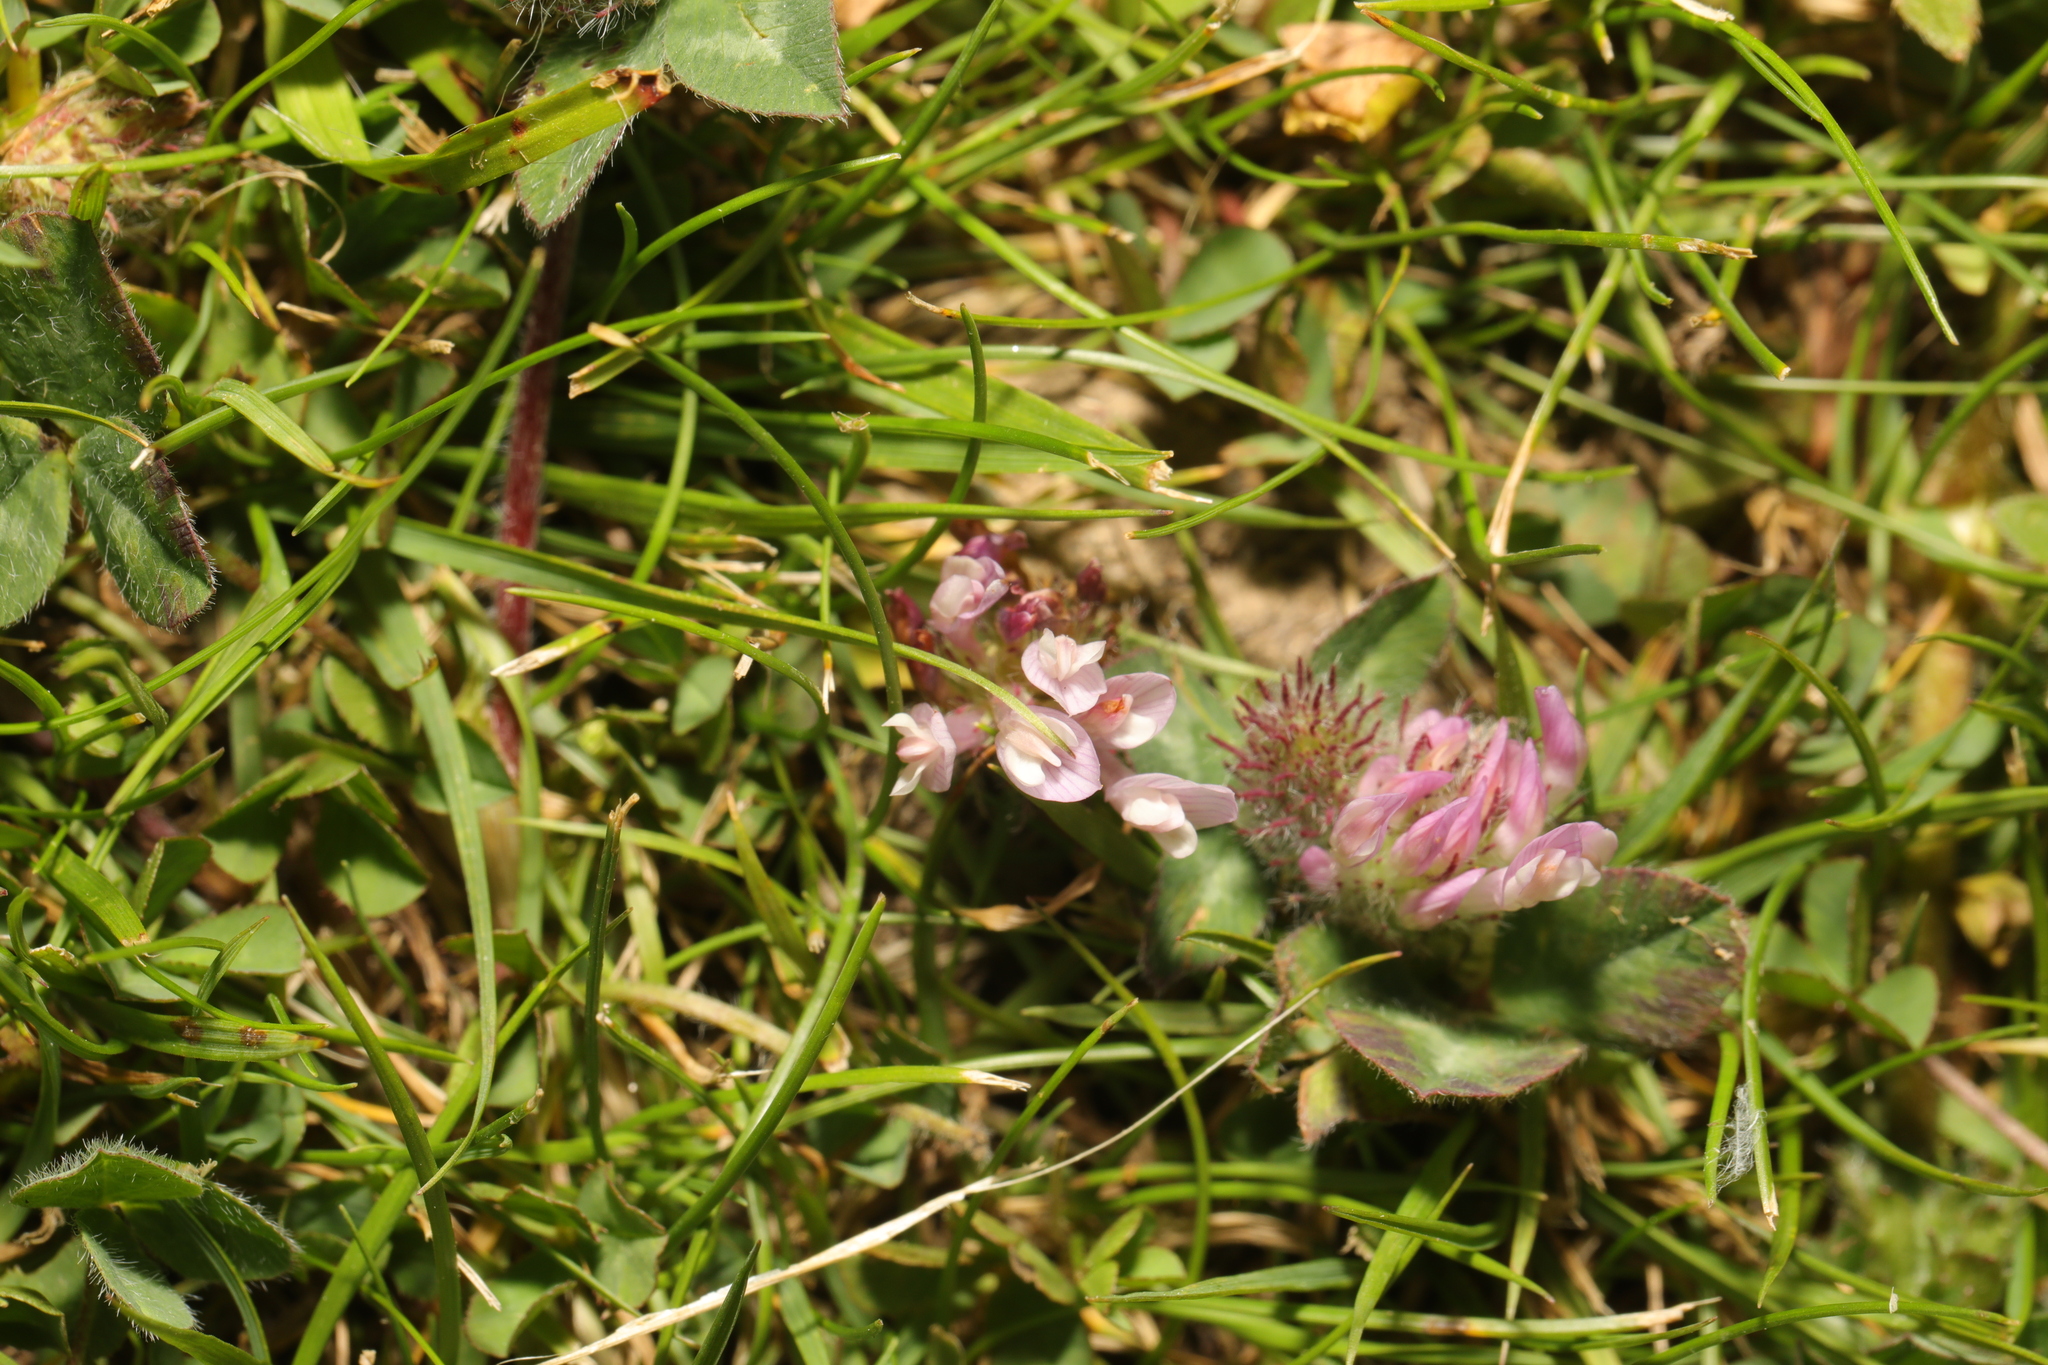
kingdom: Plantae
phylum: Tracheophyta
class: Magnoliopsida
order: Fabales
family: Fabaceae
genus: Trifolium
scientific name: Trifolium pratense
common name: Red clover
